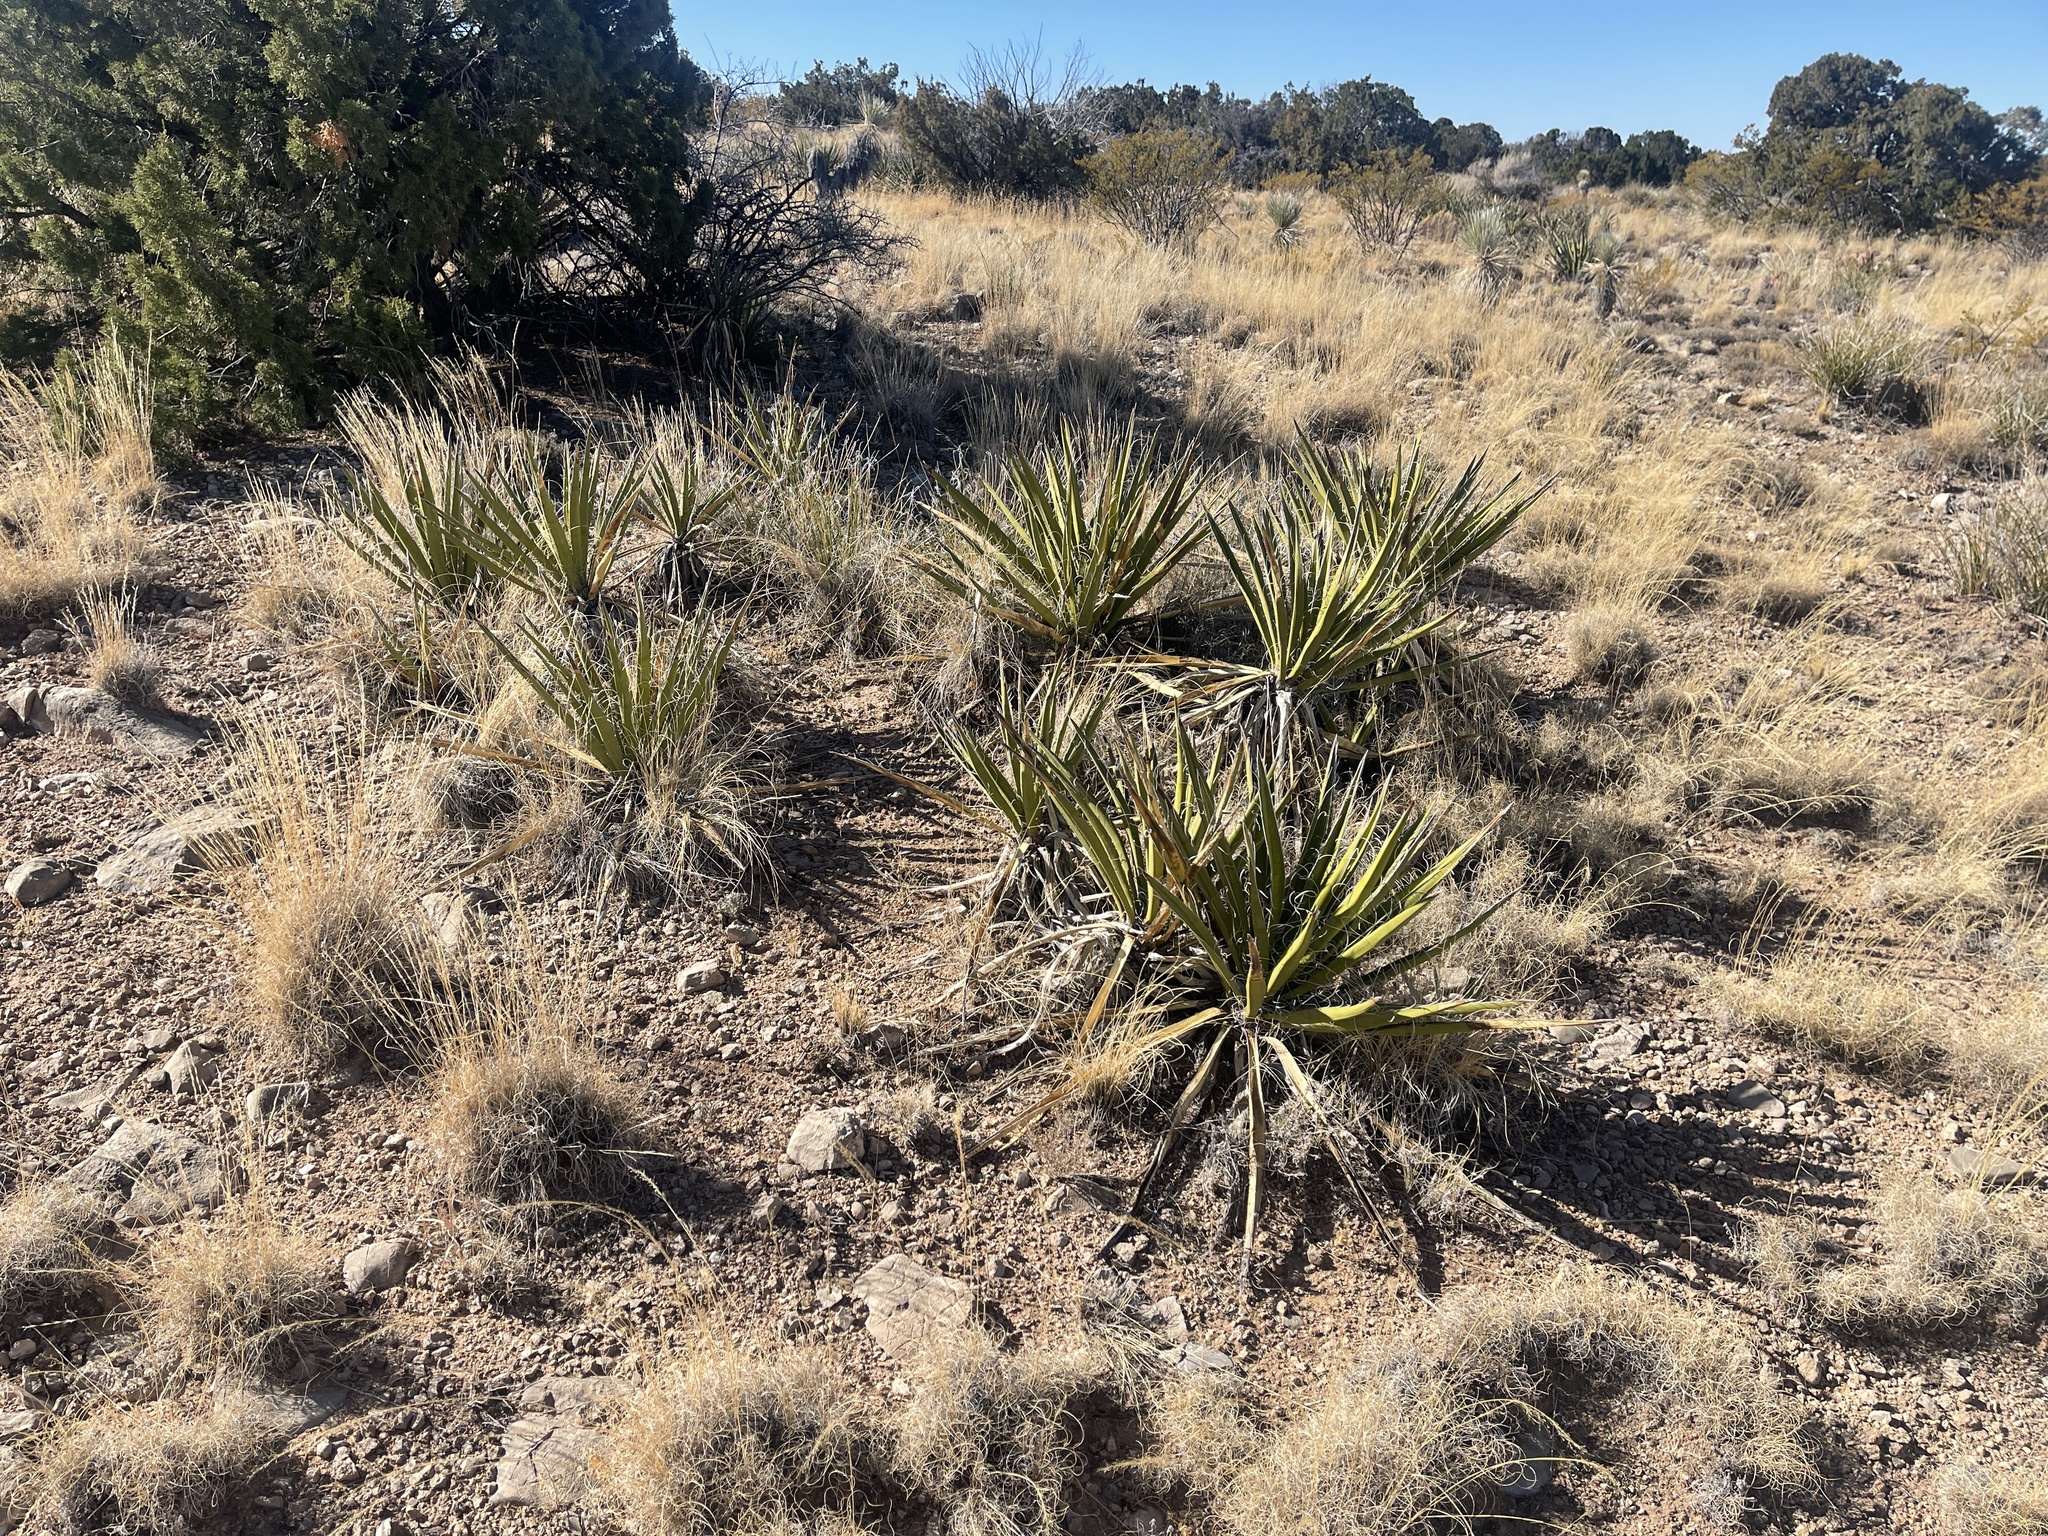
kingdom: Plantae
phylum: Tracheophyta
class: Liliopsida
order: Asparagales
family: Asparagaceae
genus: Yucca
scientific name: Yucca baccata
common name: Banana yucca
